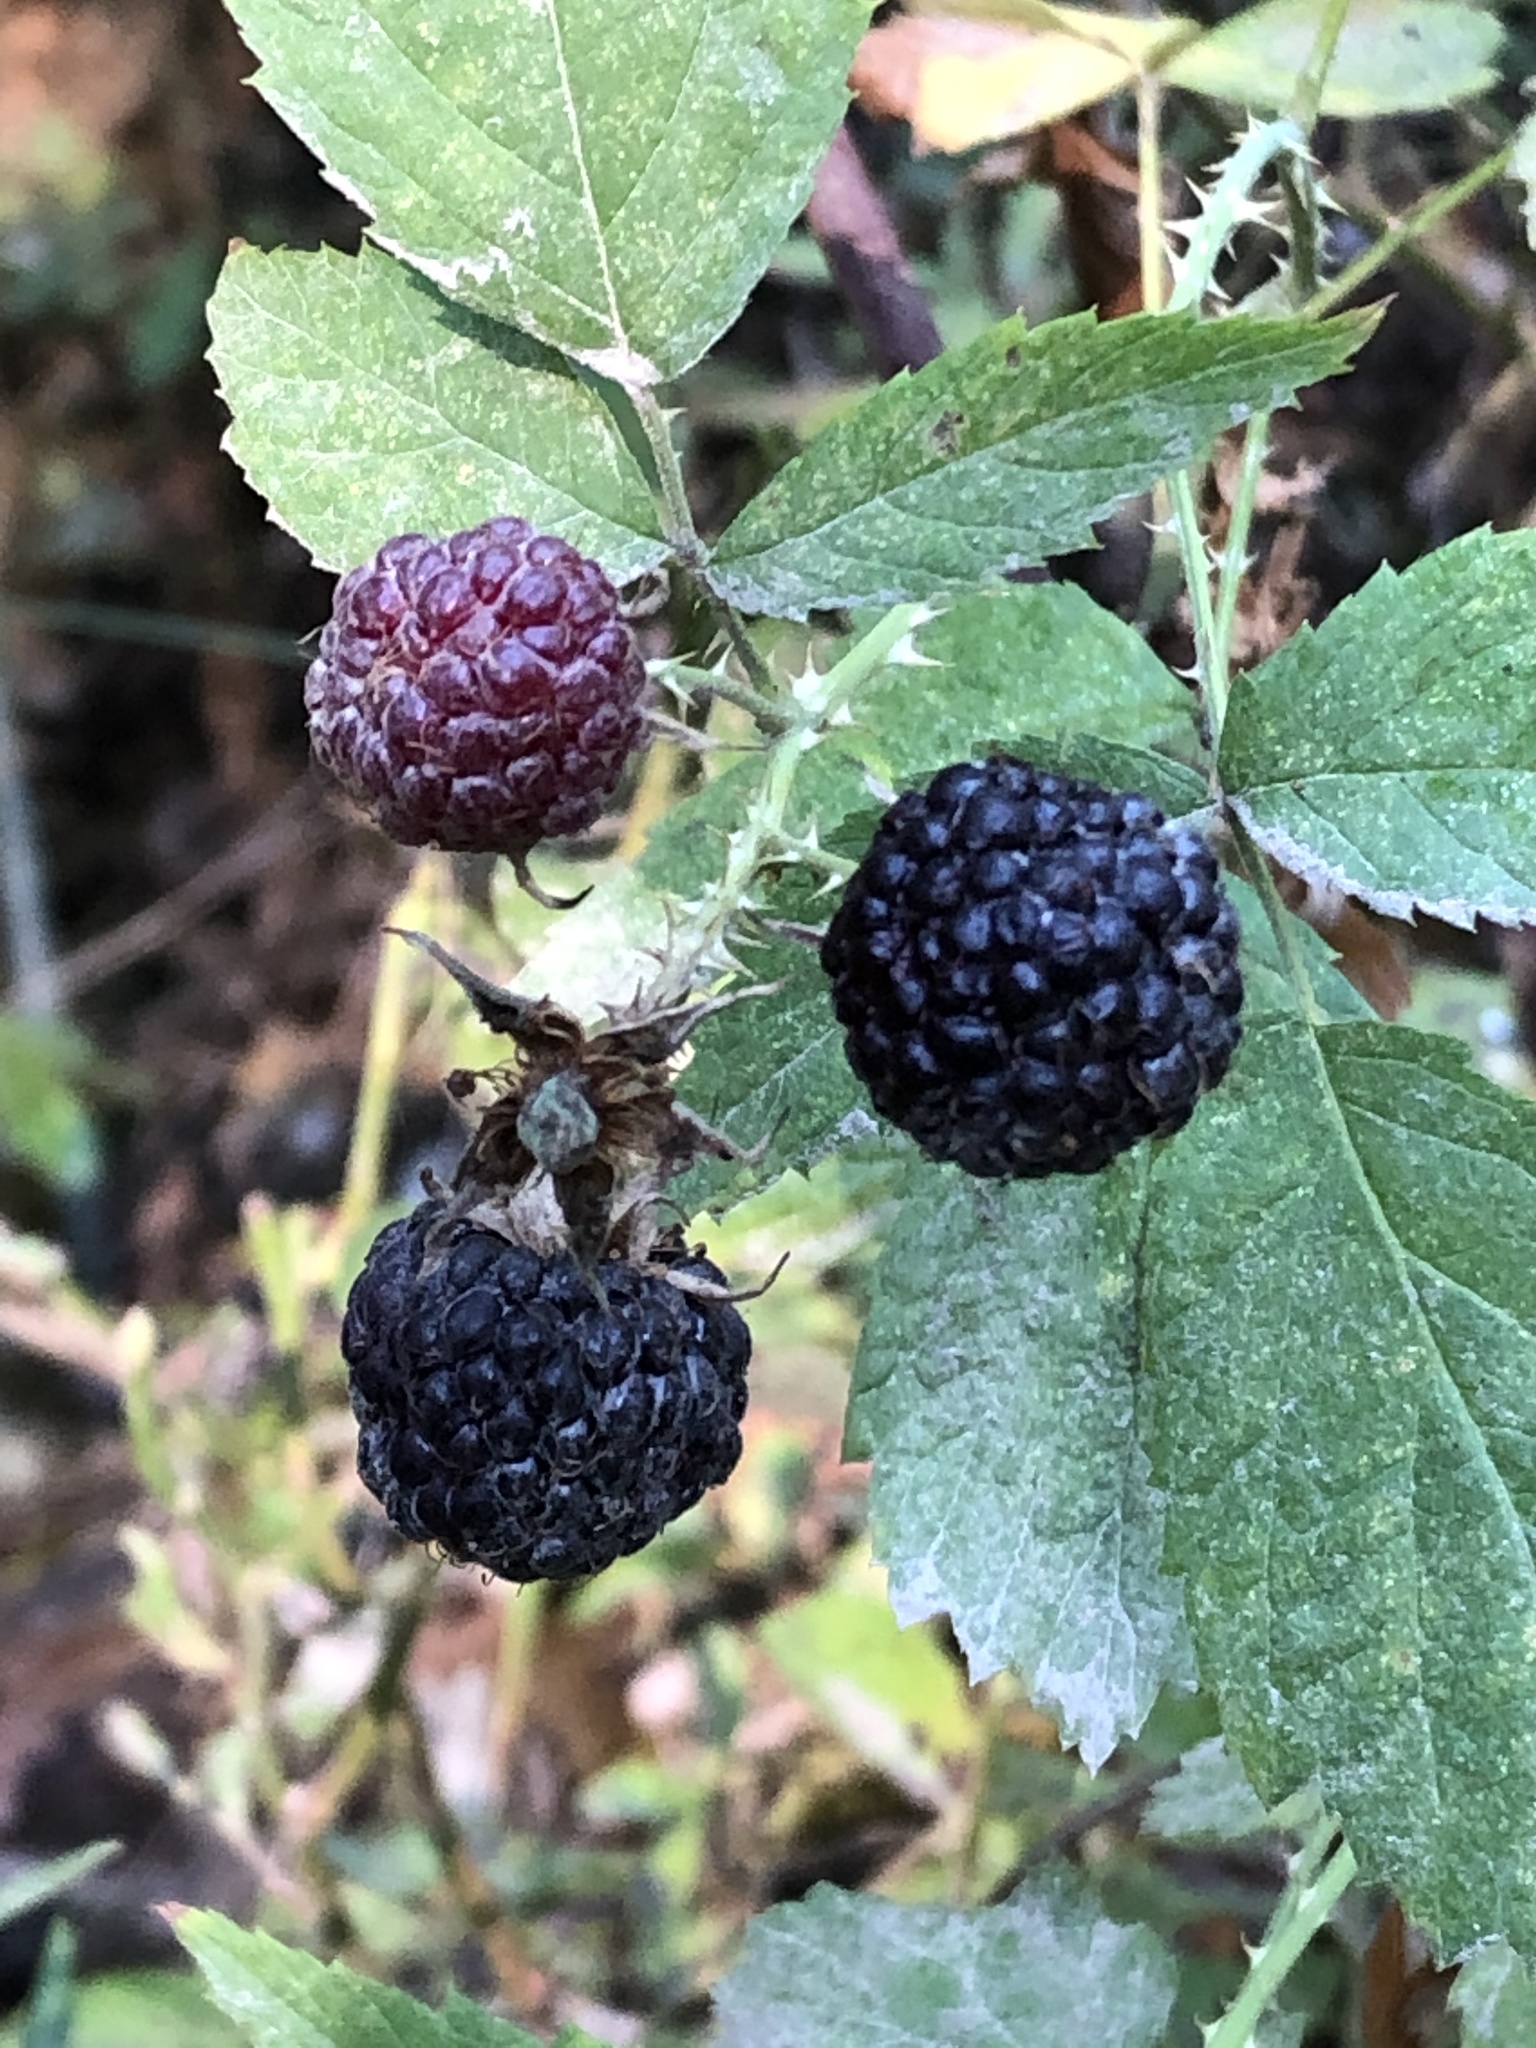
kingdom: Plantae
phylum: Tracheophyta
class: Magnoliopsida
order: Rosales
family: Rosaceae
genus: Rubus
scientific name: Rubus leucodermis
